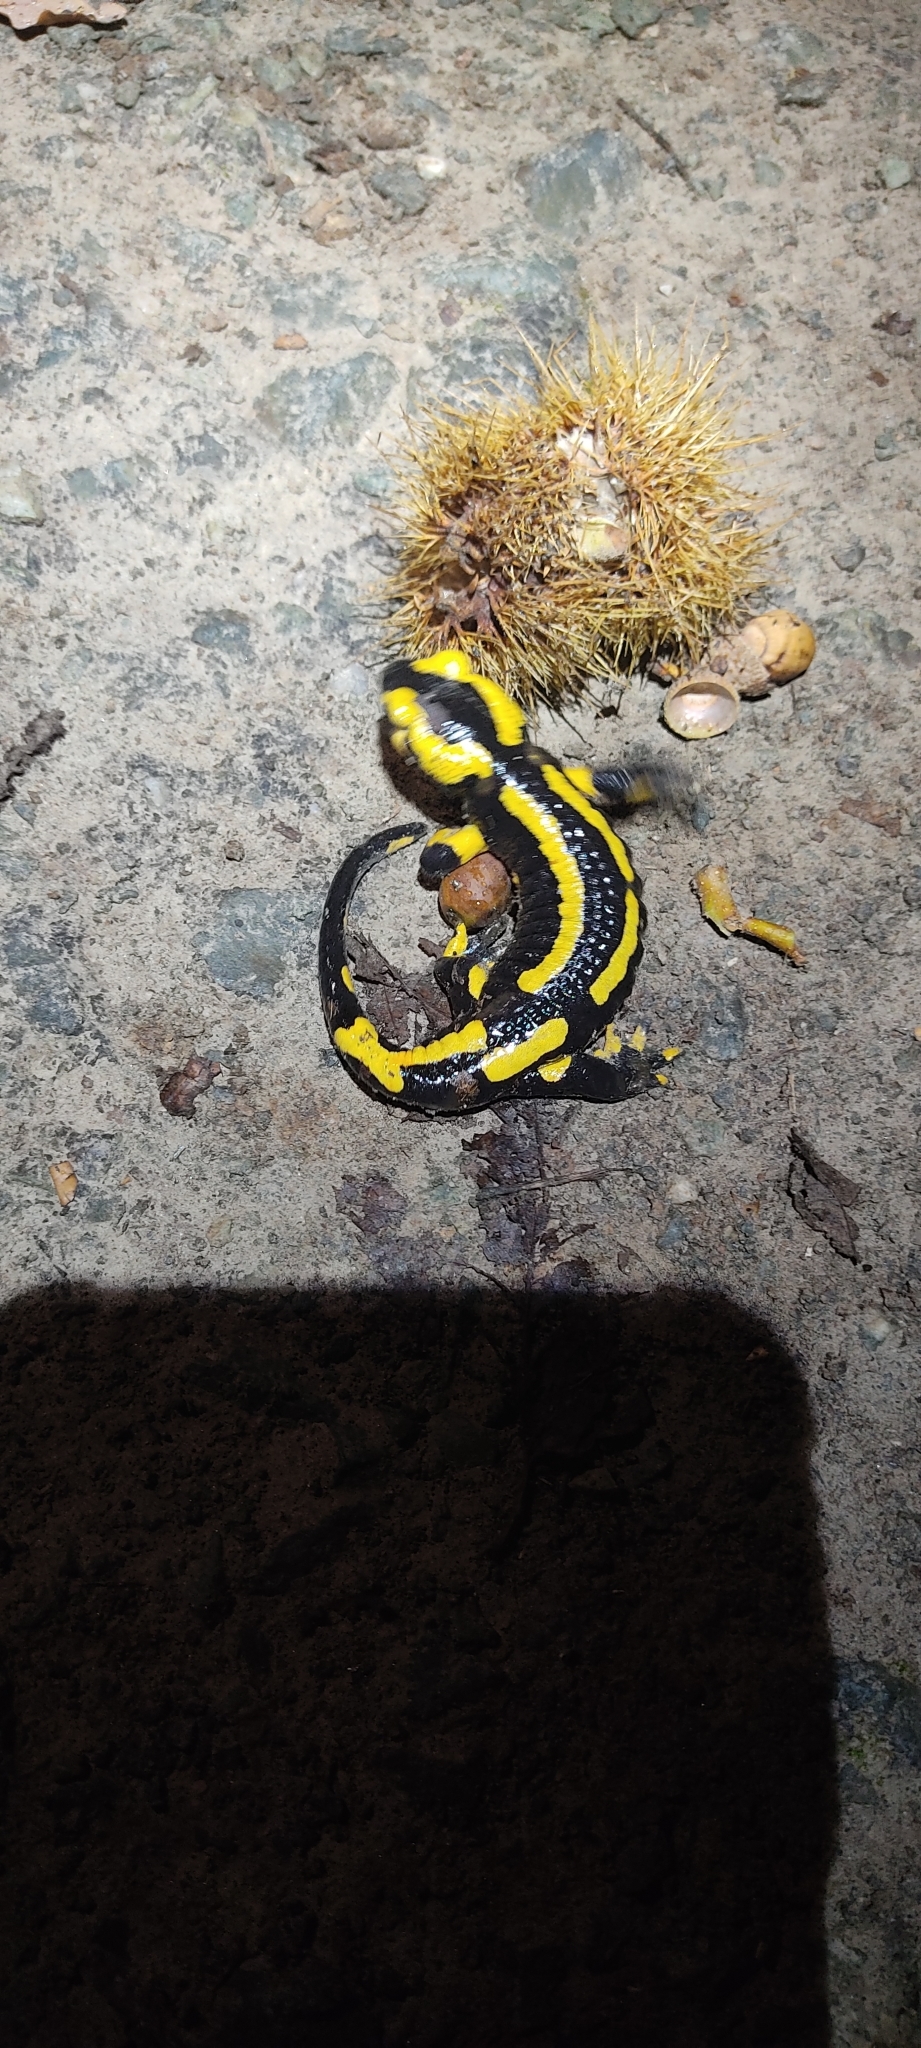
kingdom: Animalia
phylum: Chordata
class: Amphibia
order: Caudata
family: Salamandridae
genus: Salamandra
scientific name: Salamandra salamandra
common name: Fire salamander
